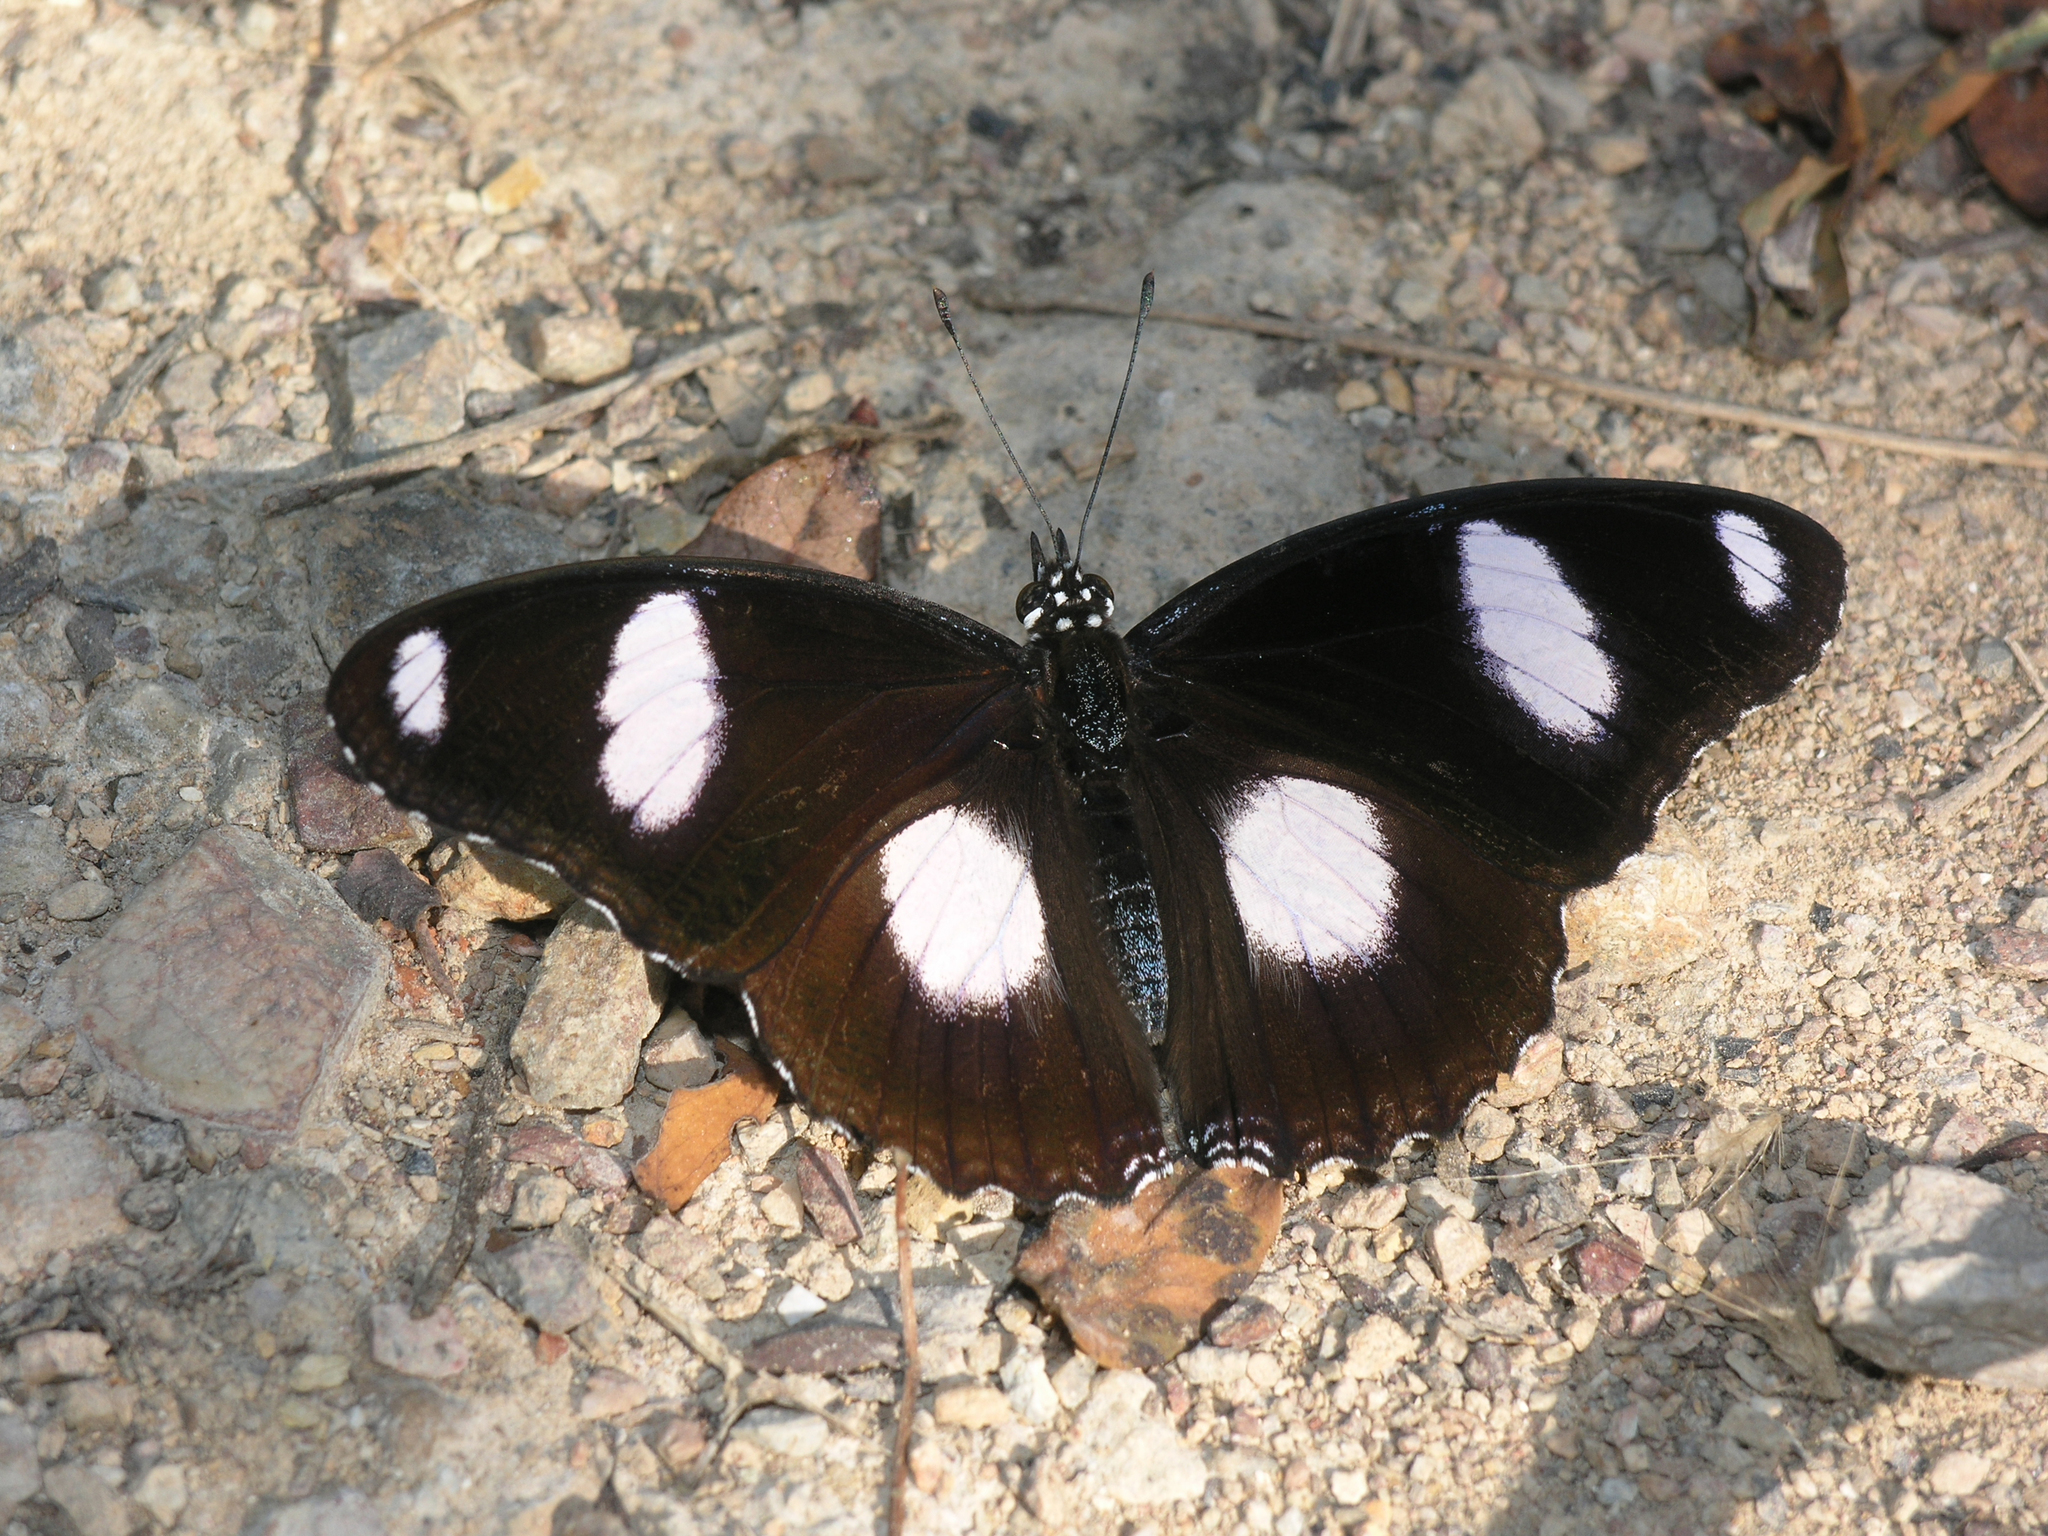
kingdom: Animalia
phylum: Arthropoda
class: Insecta
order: Lepidoptera
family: Nymphalidae
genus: Hypolimnas
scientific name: Hypolimnas misippus
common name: False plain tiger
